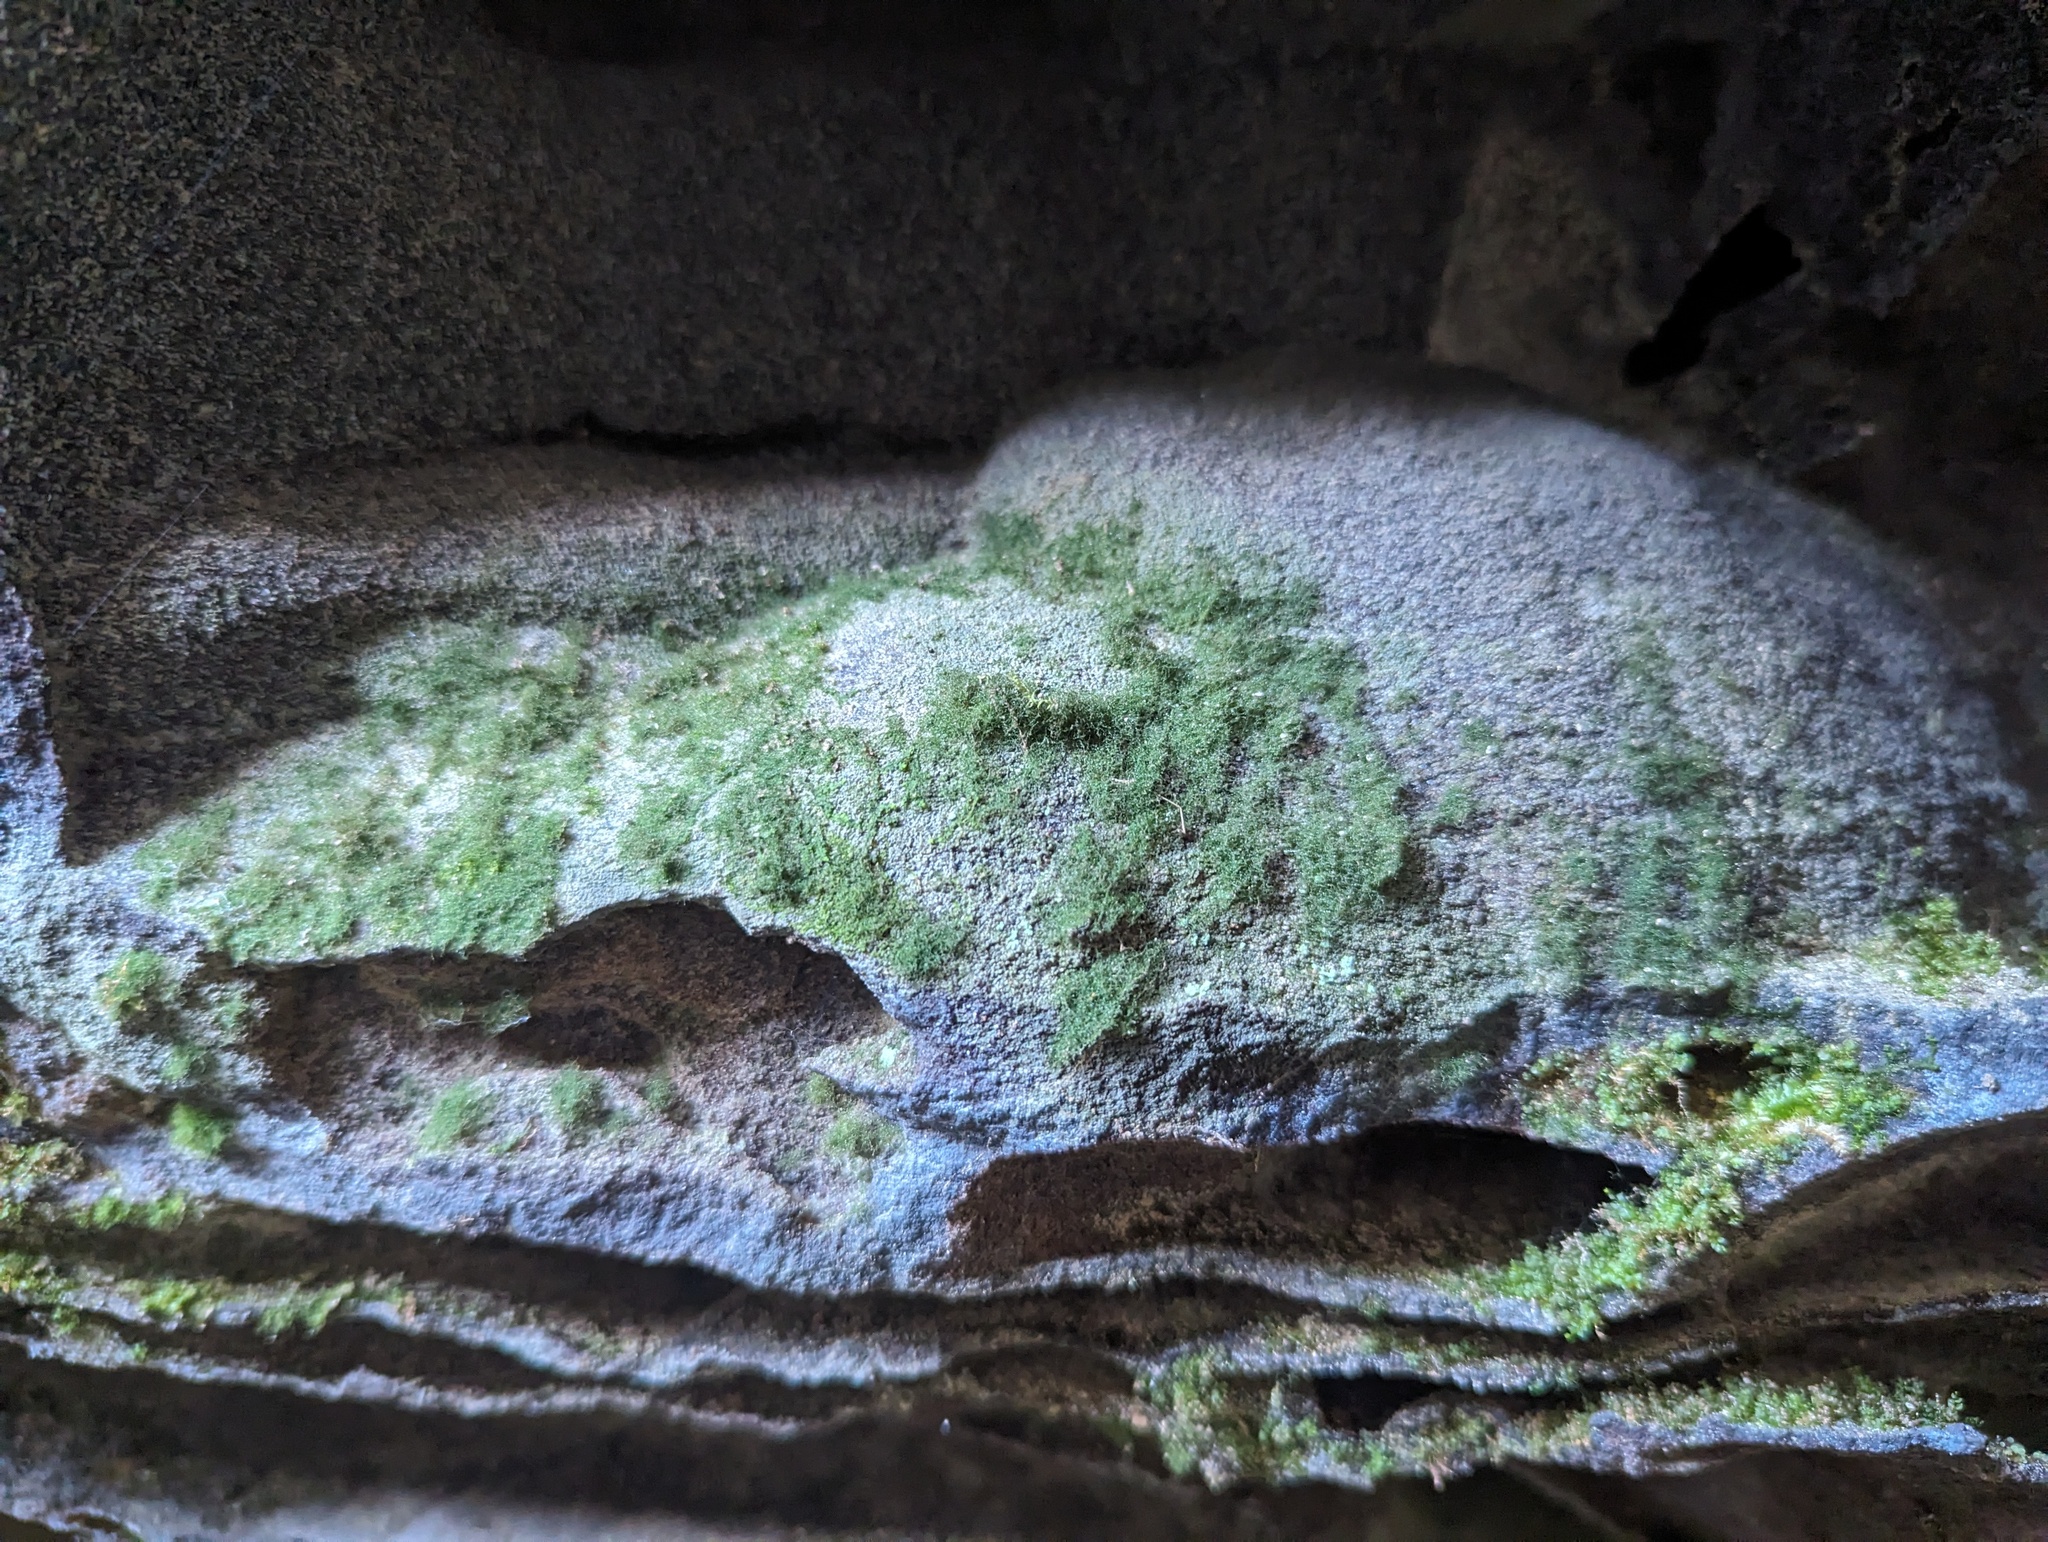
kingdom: Plantae
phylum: Tracheophyta
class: Polypodiopsida
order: Hymenophyllales
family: Hymenophyllaceae
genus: Crepidomanes
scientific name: Crepidomanes intricatum
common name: Weft fern
